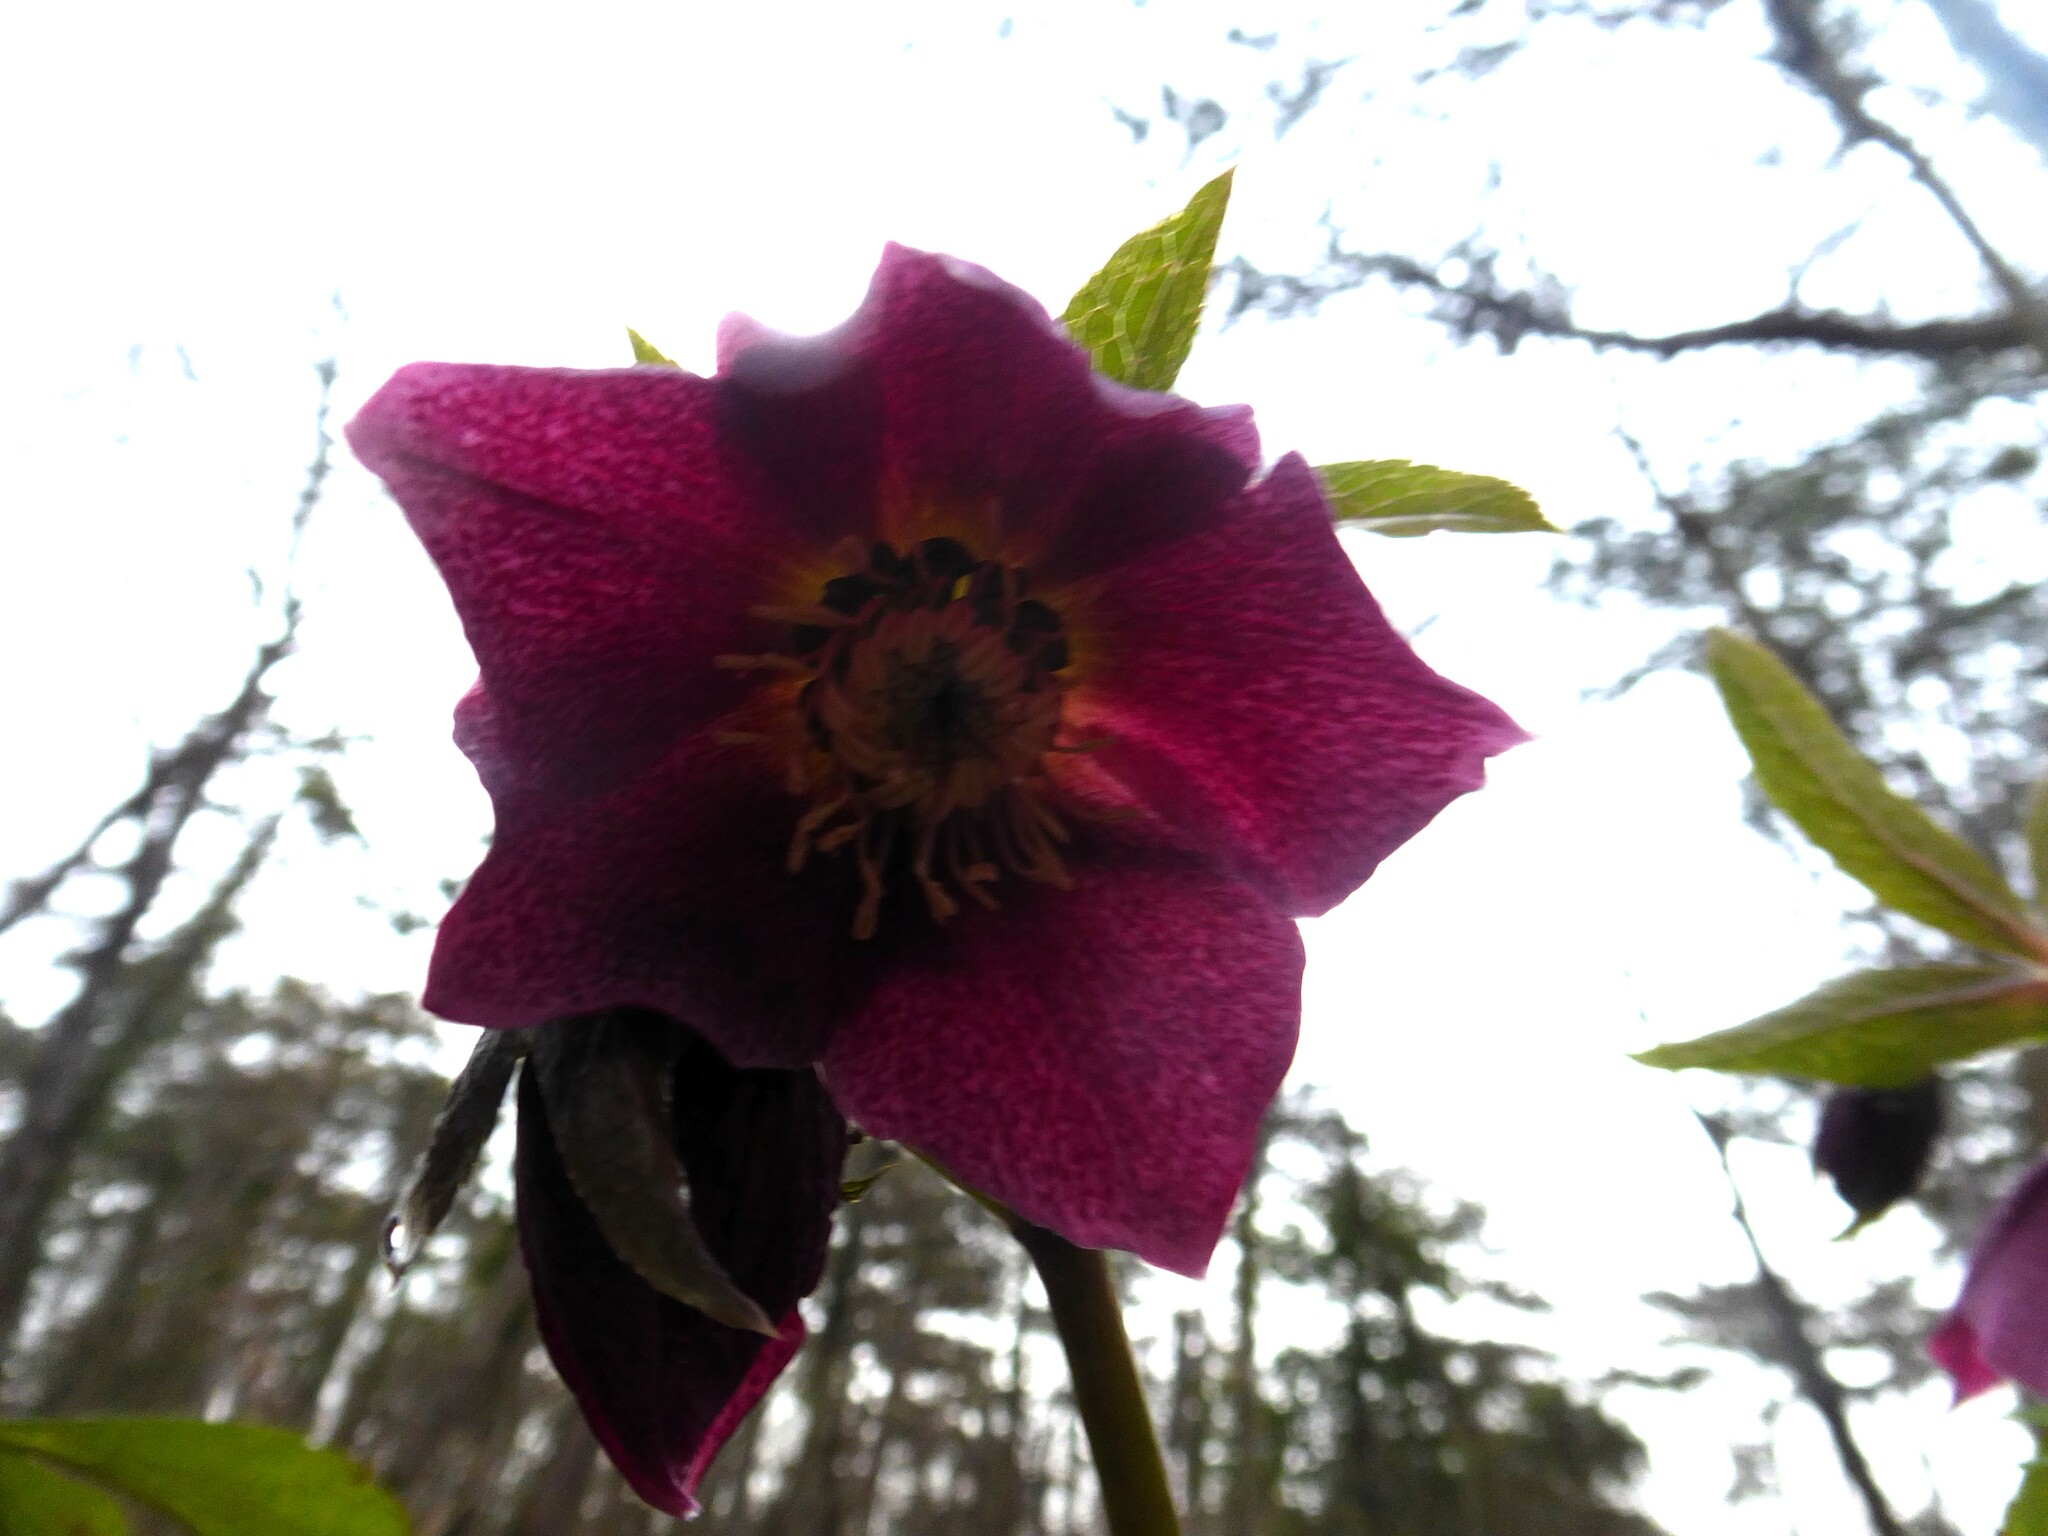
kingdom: Plantae
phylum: Tracheophyta
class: Magnoliopsida
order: Ranunculales
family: Ranunculaceae
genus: Helleborus
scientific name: Helleborus hybridus
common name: Hybrid lenten-rose
